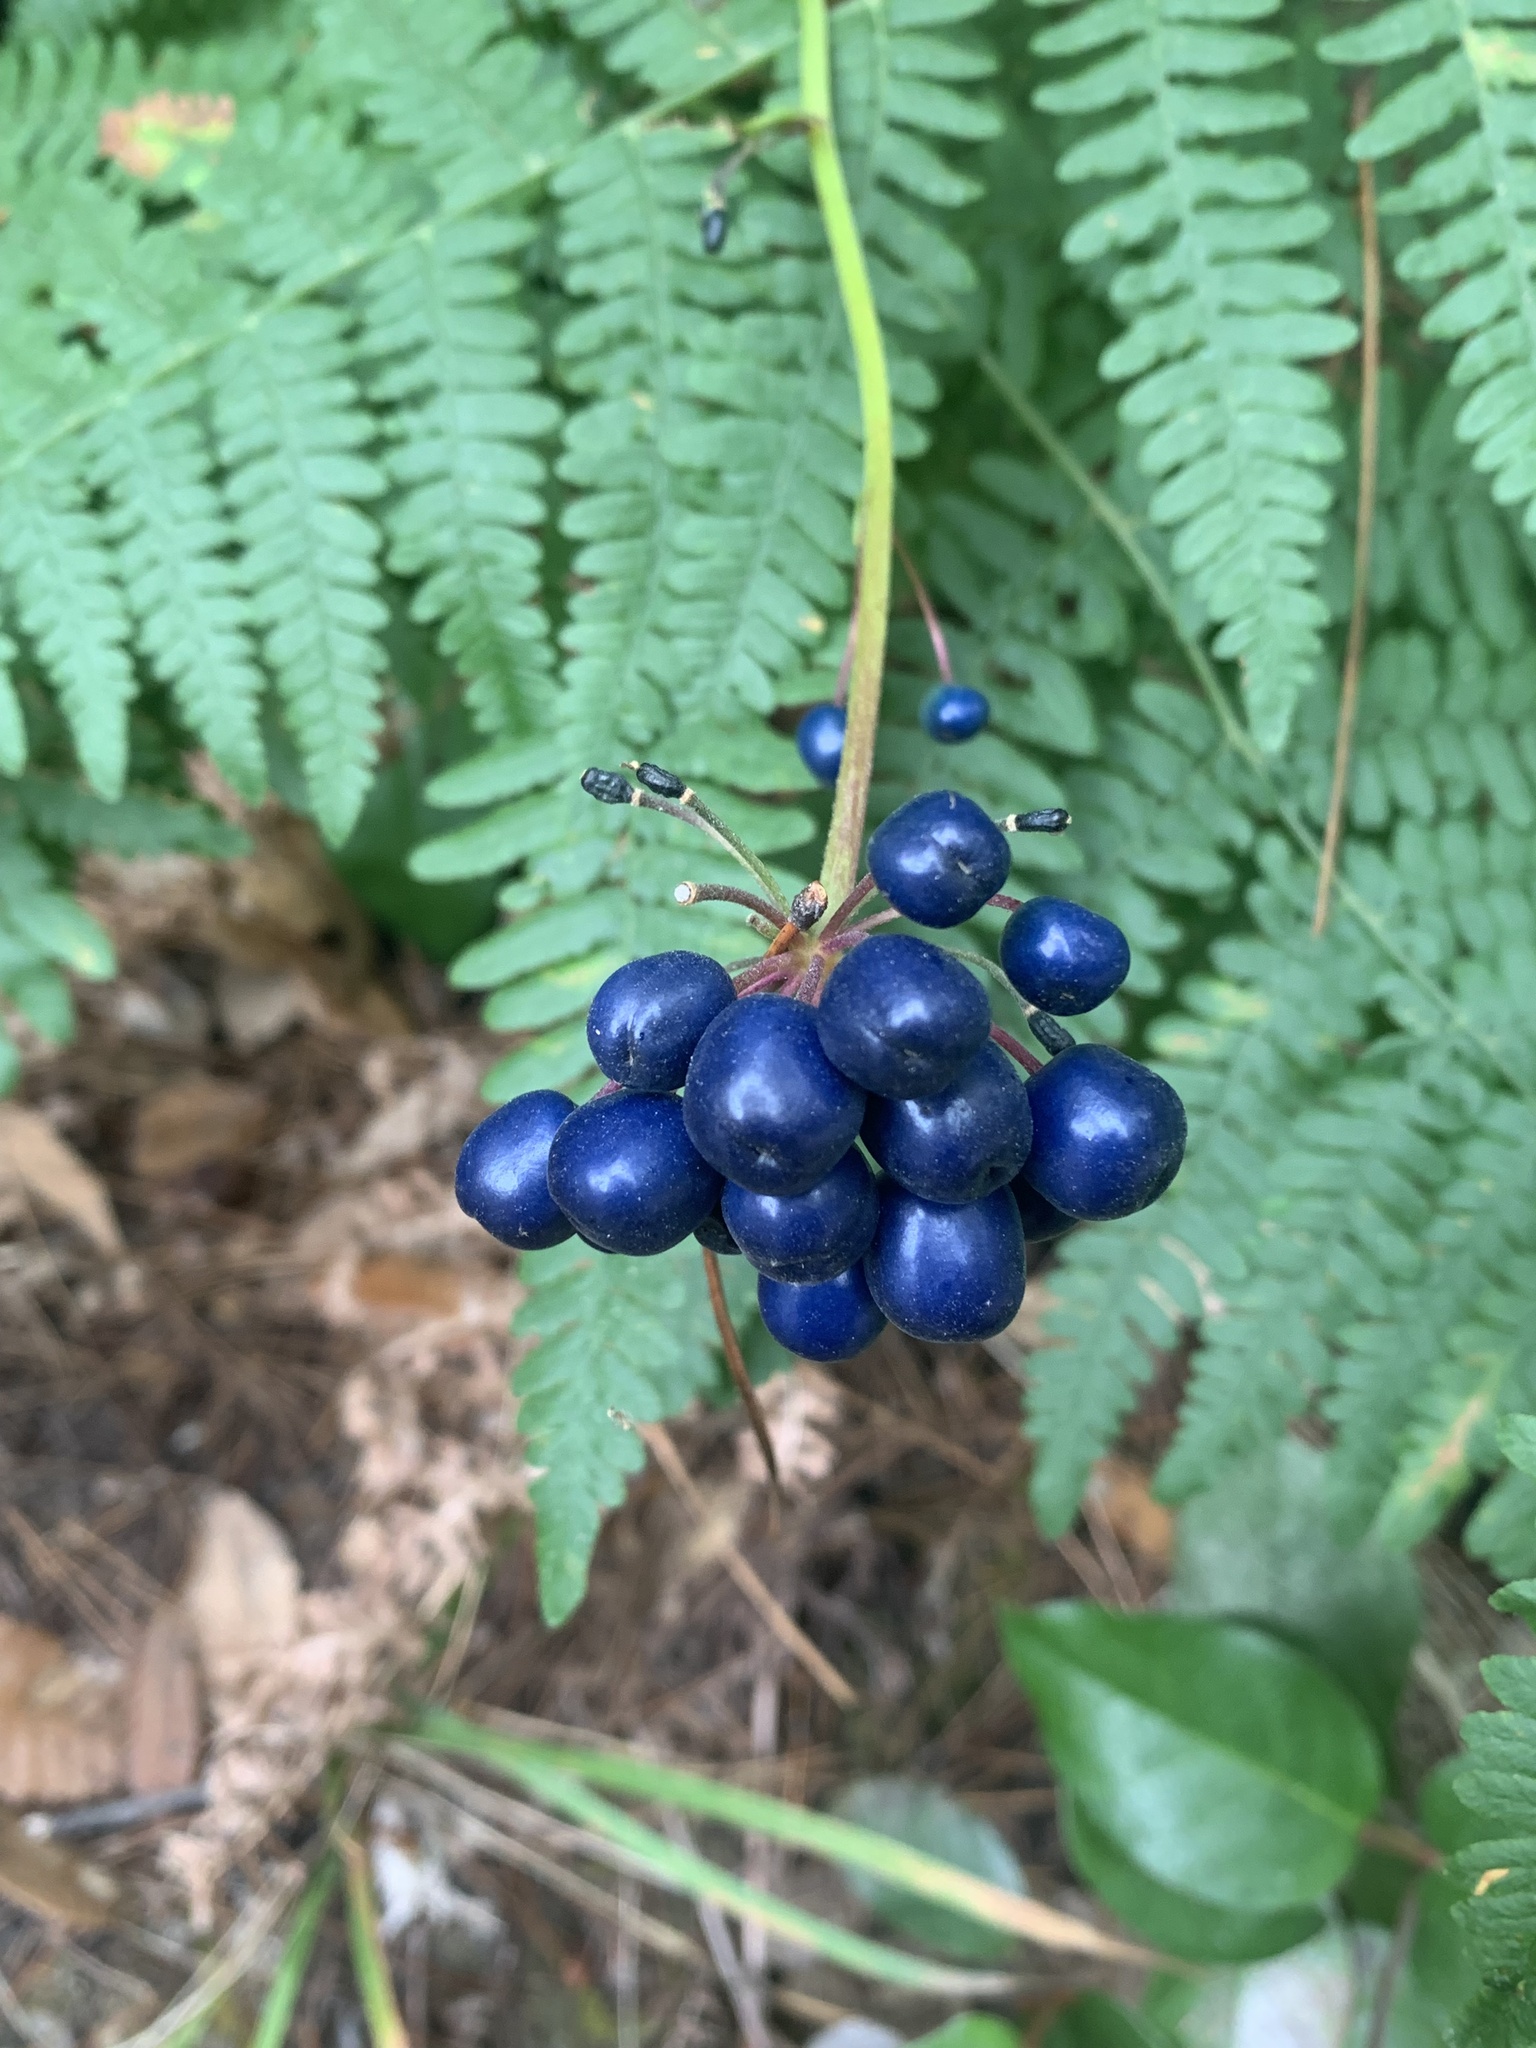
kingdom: Plantae
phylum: Tracheophyta
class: Liliopsida
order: Liliales
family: Liliaceae
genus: Clintonia
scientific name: Clintonia andrewsiana
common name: Red clintonia
